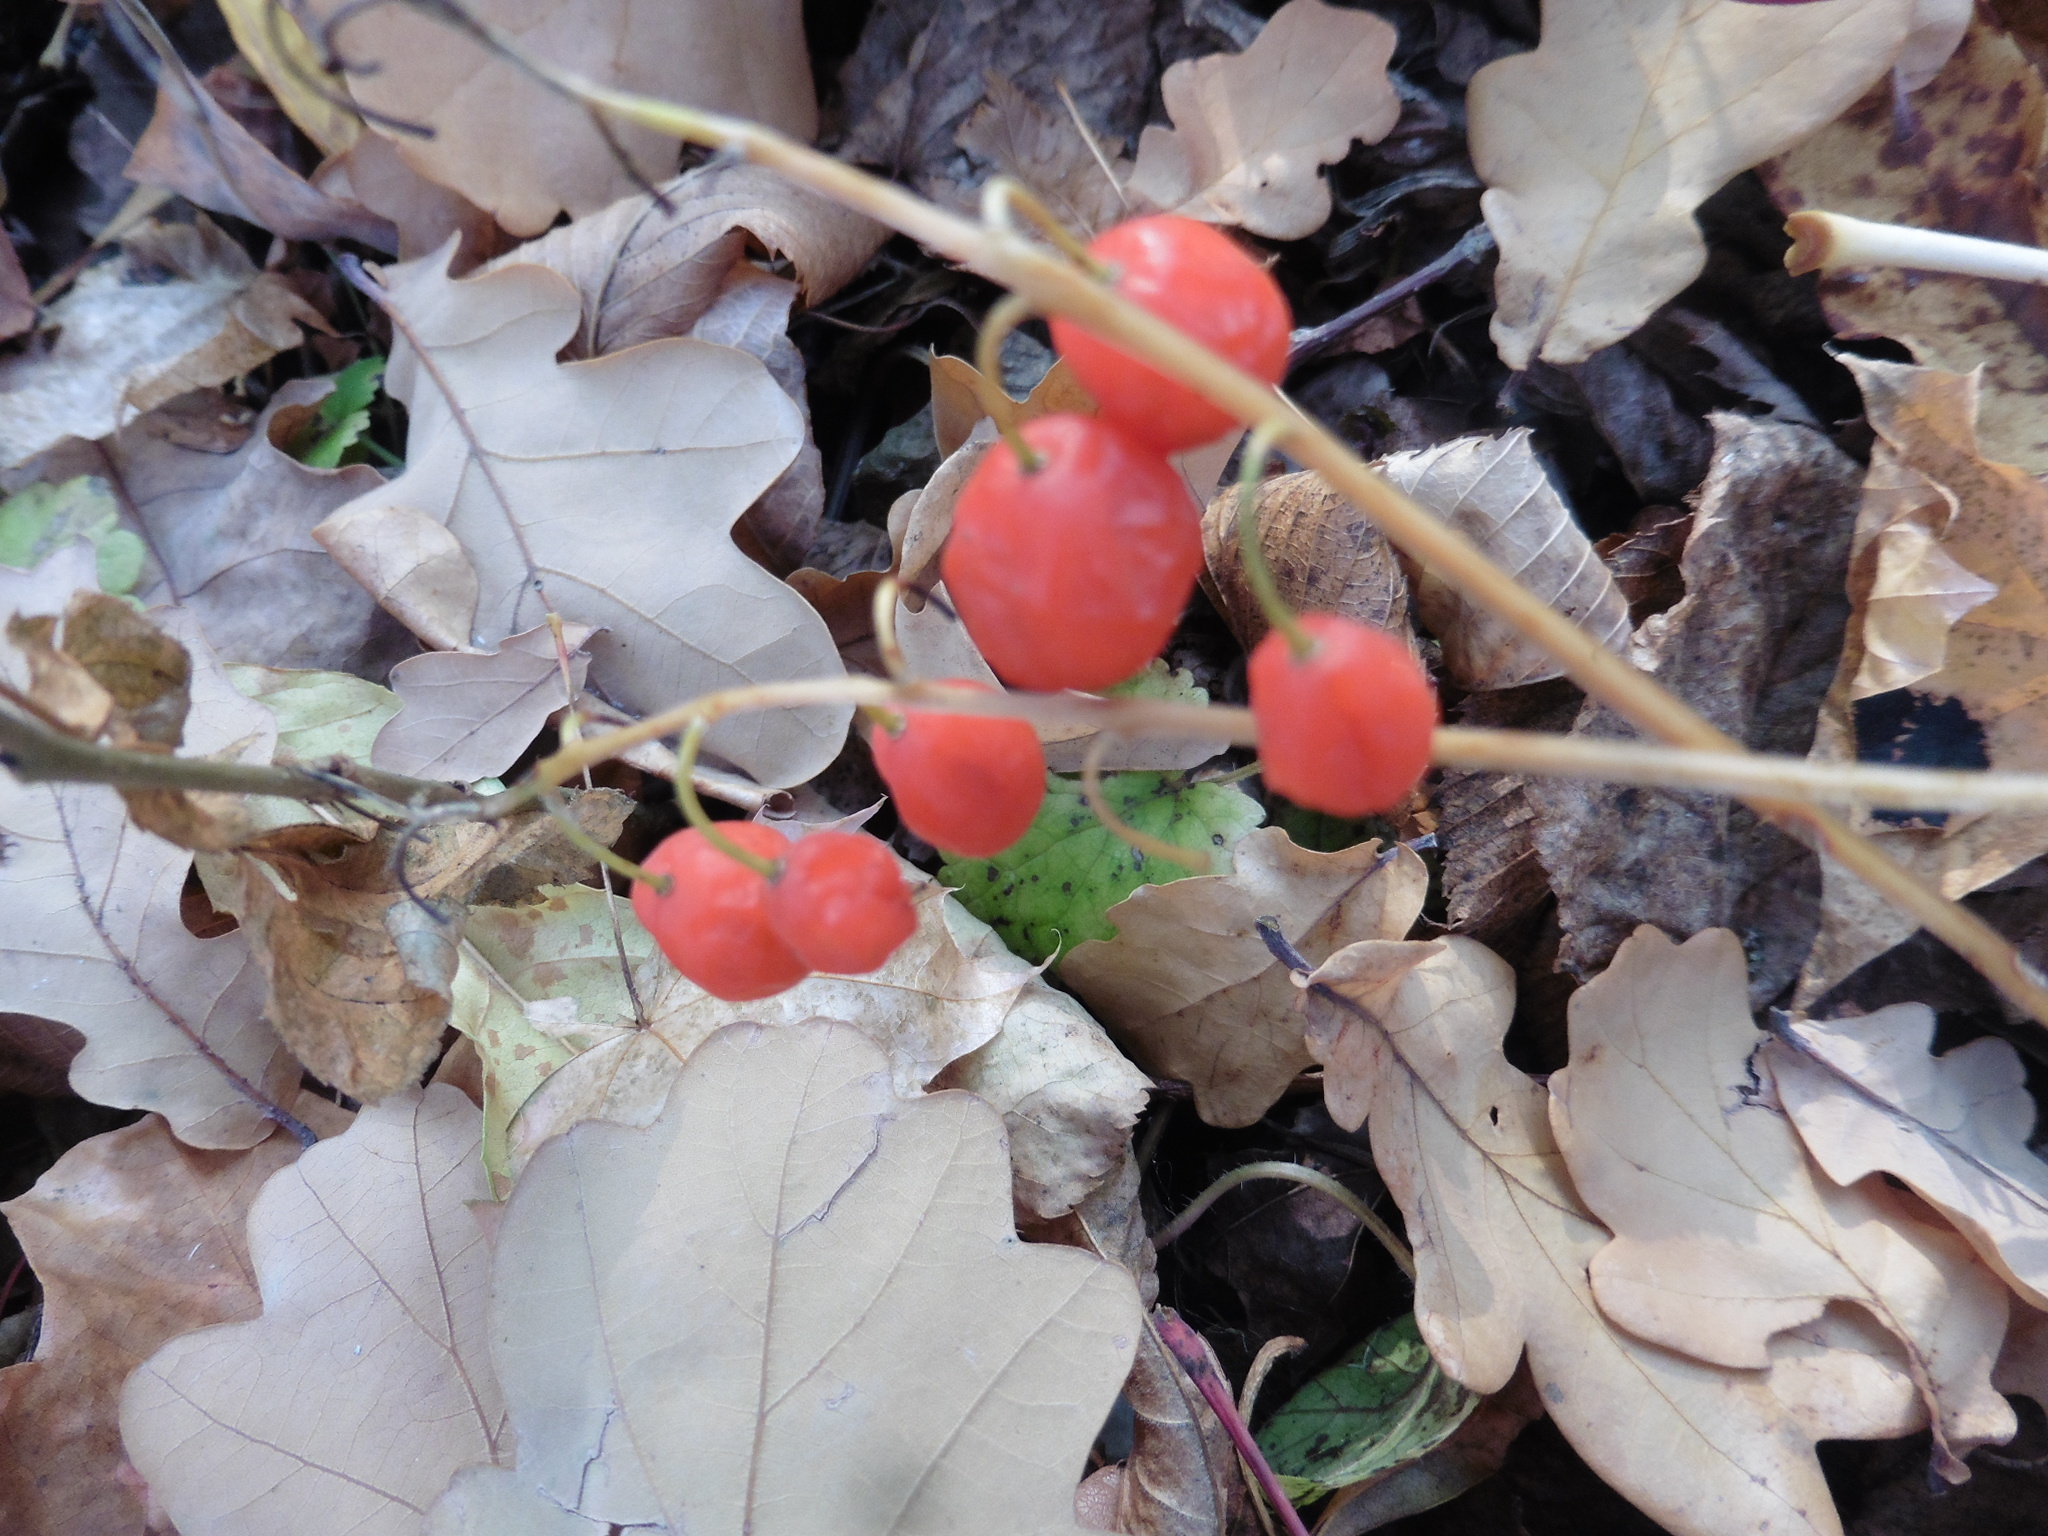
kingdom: Plantae
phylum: Tracheophyta
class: Liliopsida
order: Asparagales
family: Asparagaceae
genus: Convallaria
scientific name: Convallaria majalis
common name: Lily-of-the-valley
